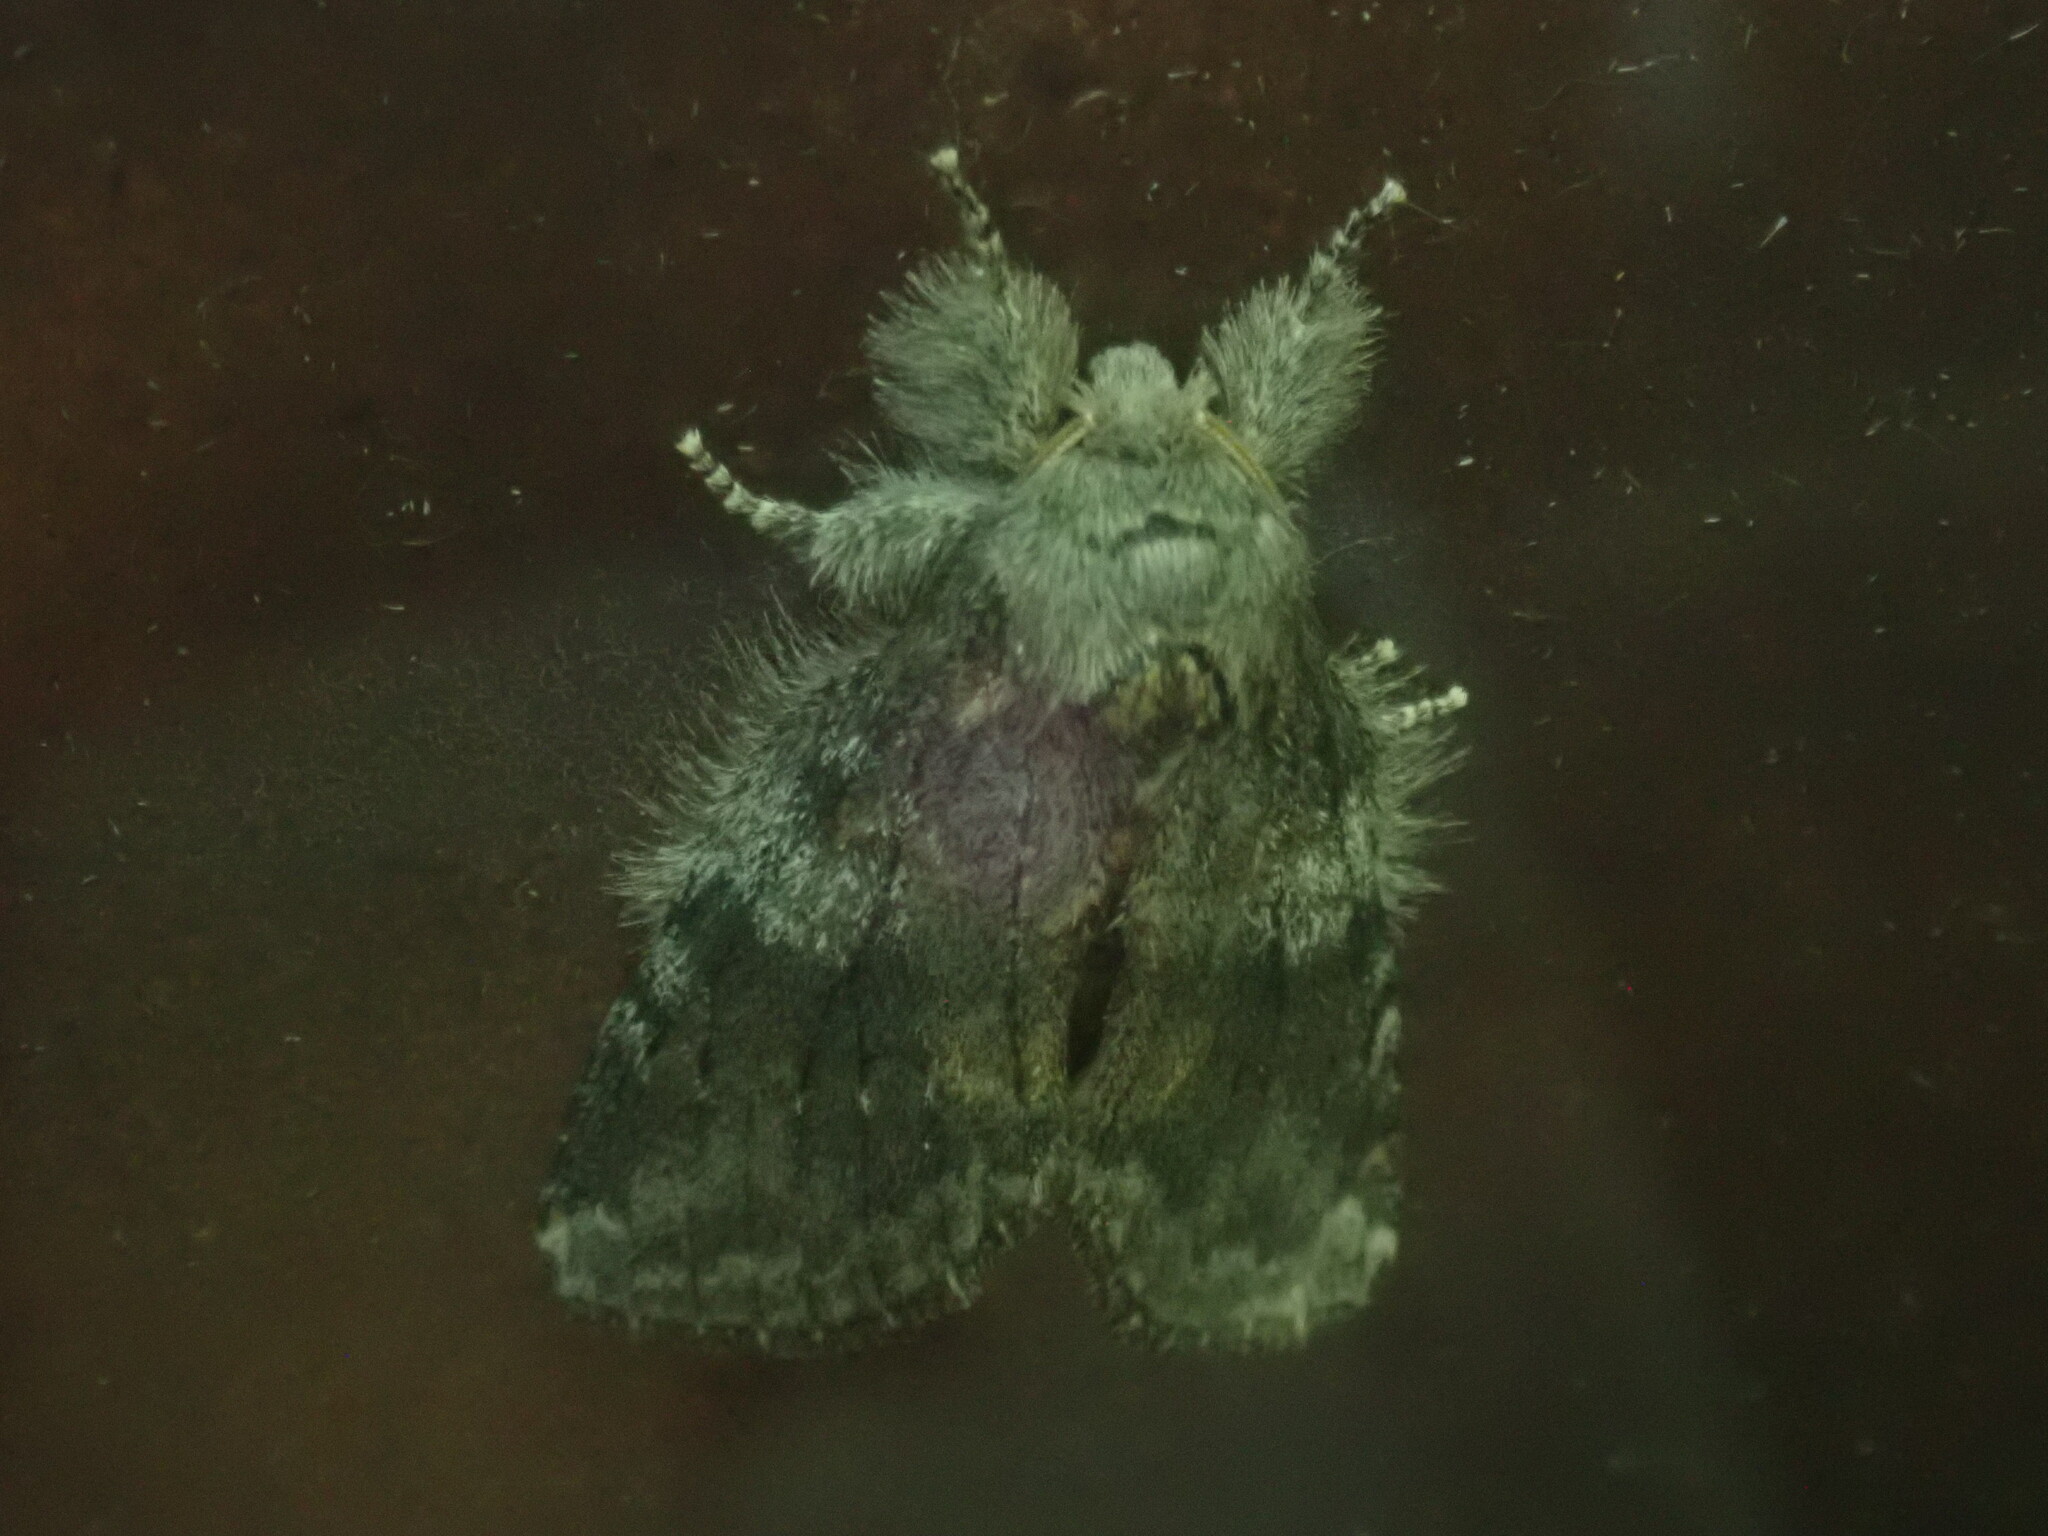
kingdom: Animalia
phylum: Arthropoda
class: Insecta
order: Lepidoptera
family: Notodontidae
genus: Peridea
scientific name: Peridea angulosa
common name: Angulose prominent
